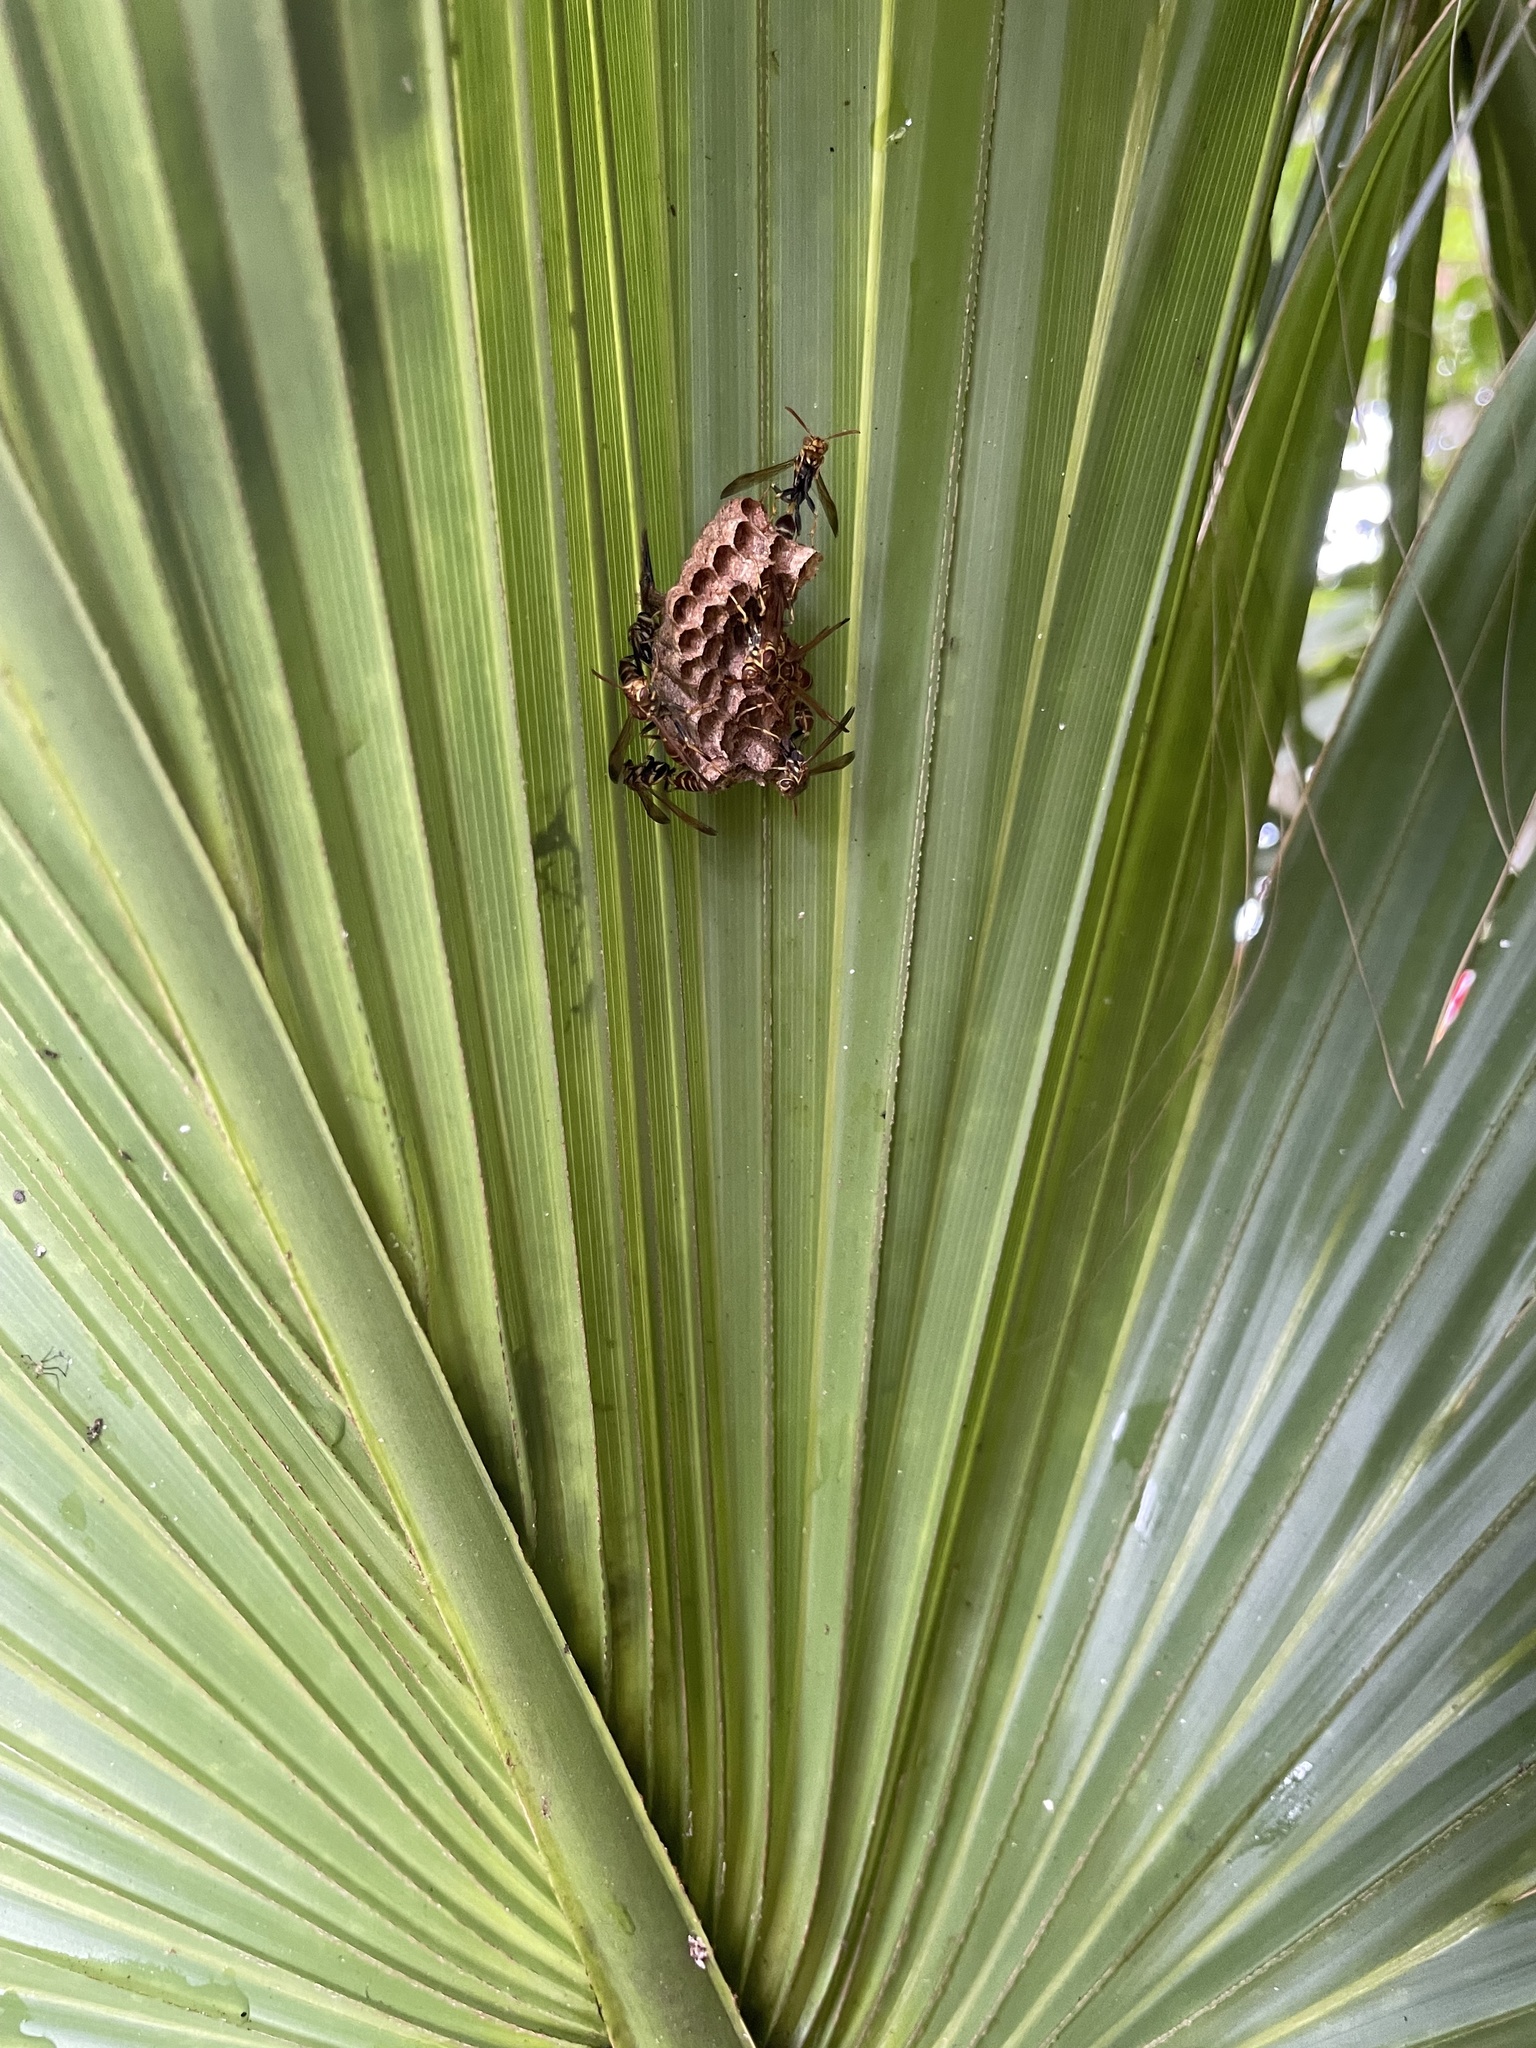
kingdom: Animalia
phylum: Arthropoda
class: Insecta
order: Hymenoptera
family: Vespidae
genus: Mischocyttarus
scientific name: Mischocyttarus mexicanus
